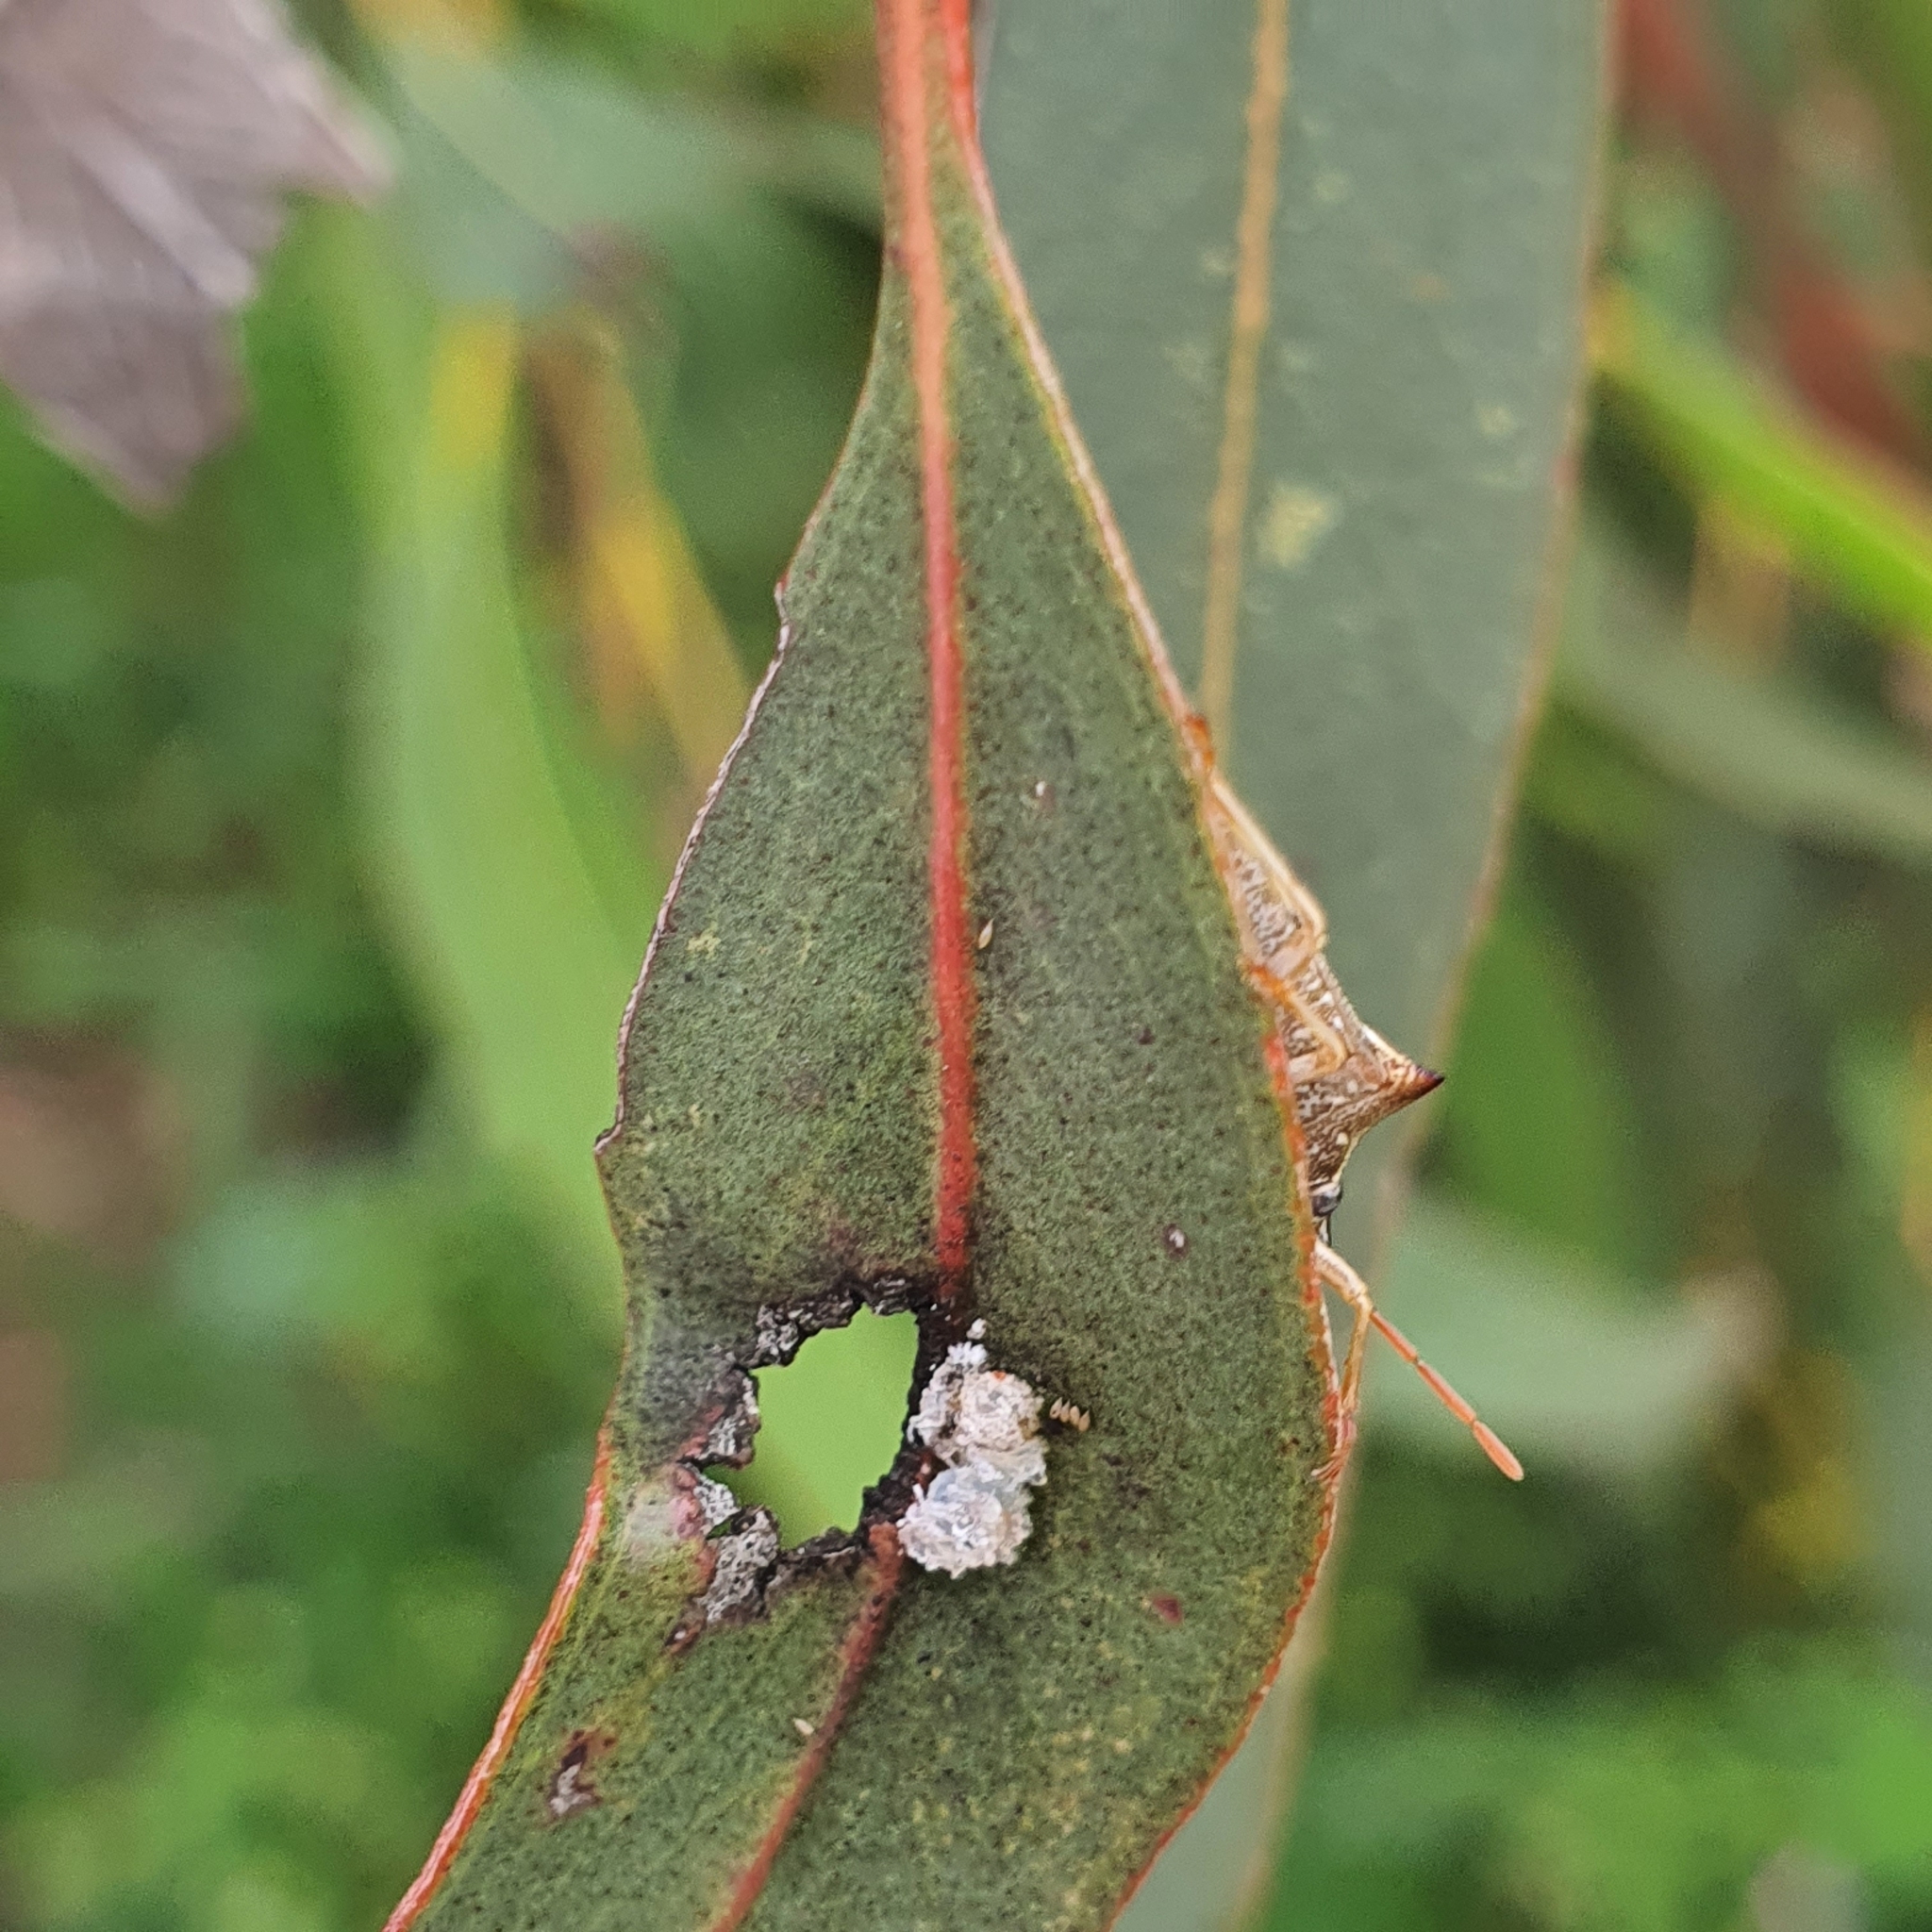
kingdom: Animalia
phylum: Arthropoda
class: Insecta
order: Hemiptera
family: Pentatomidae
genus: Oechalia
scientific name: Oechalia schellenbergii
